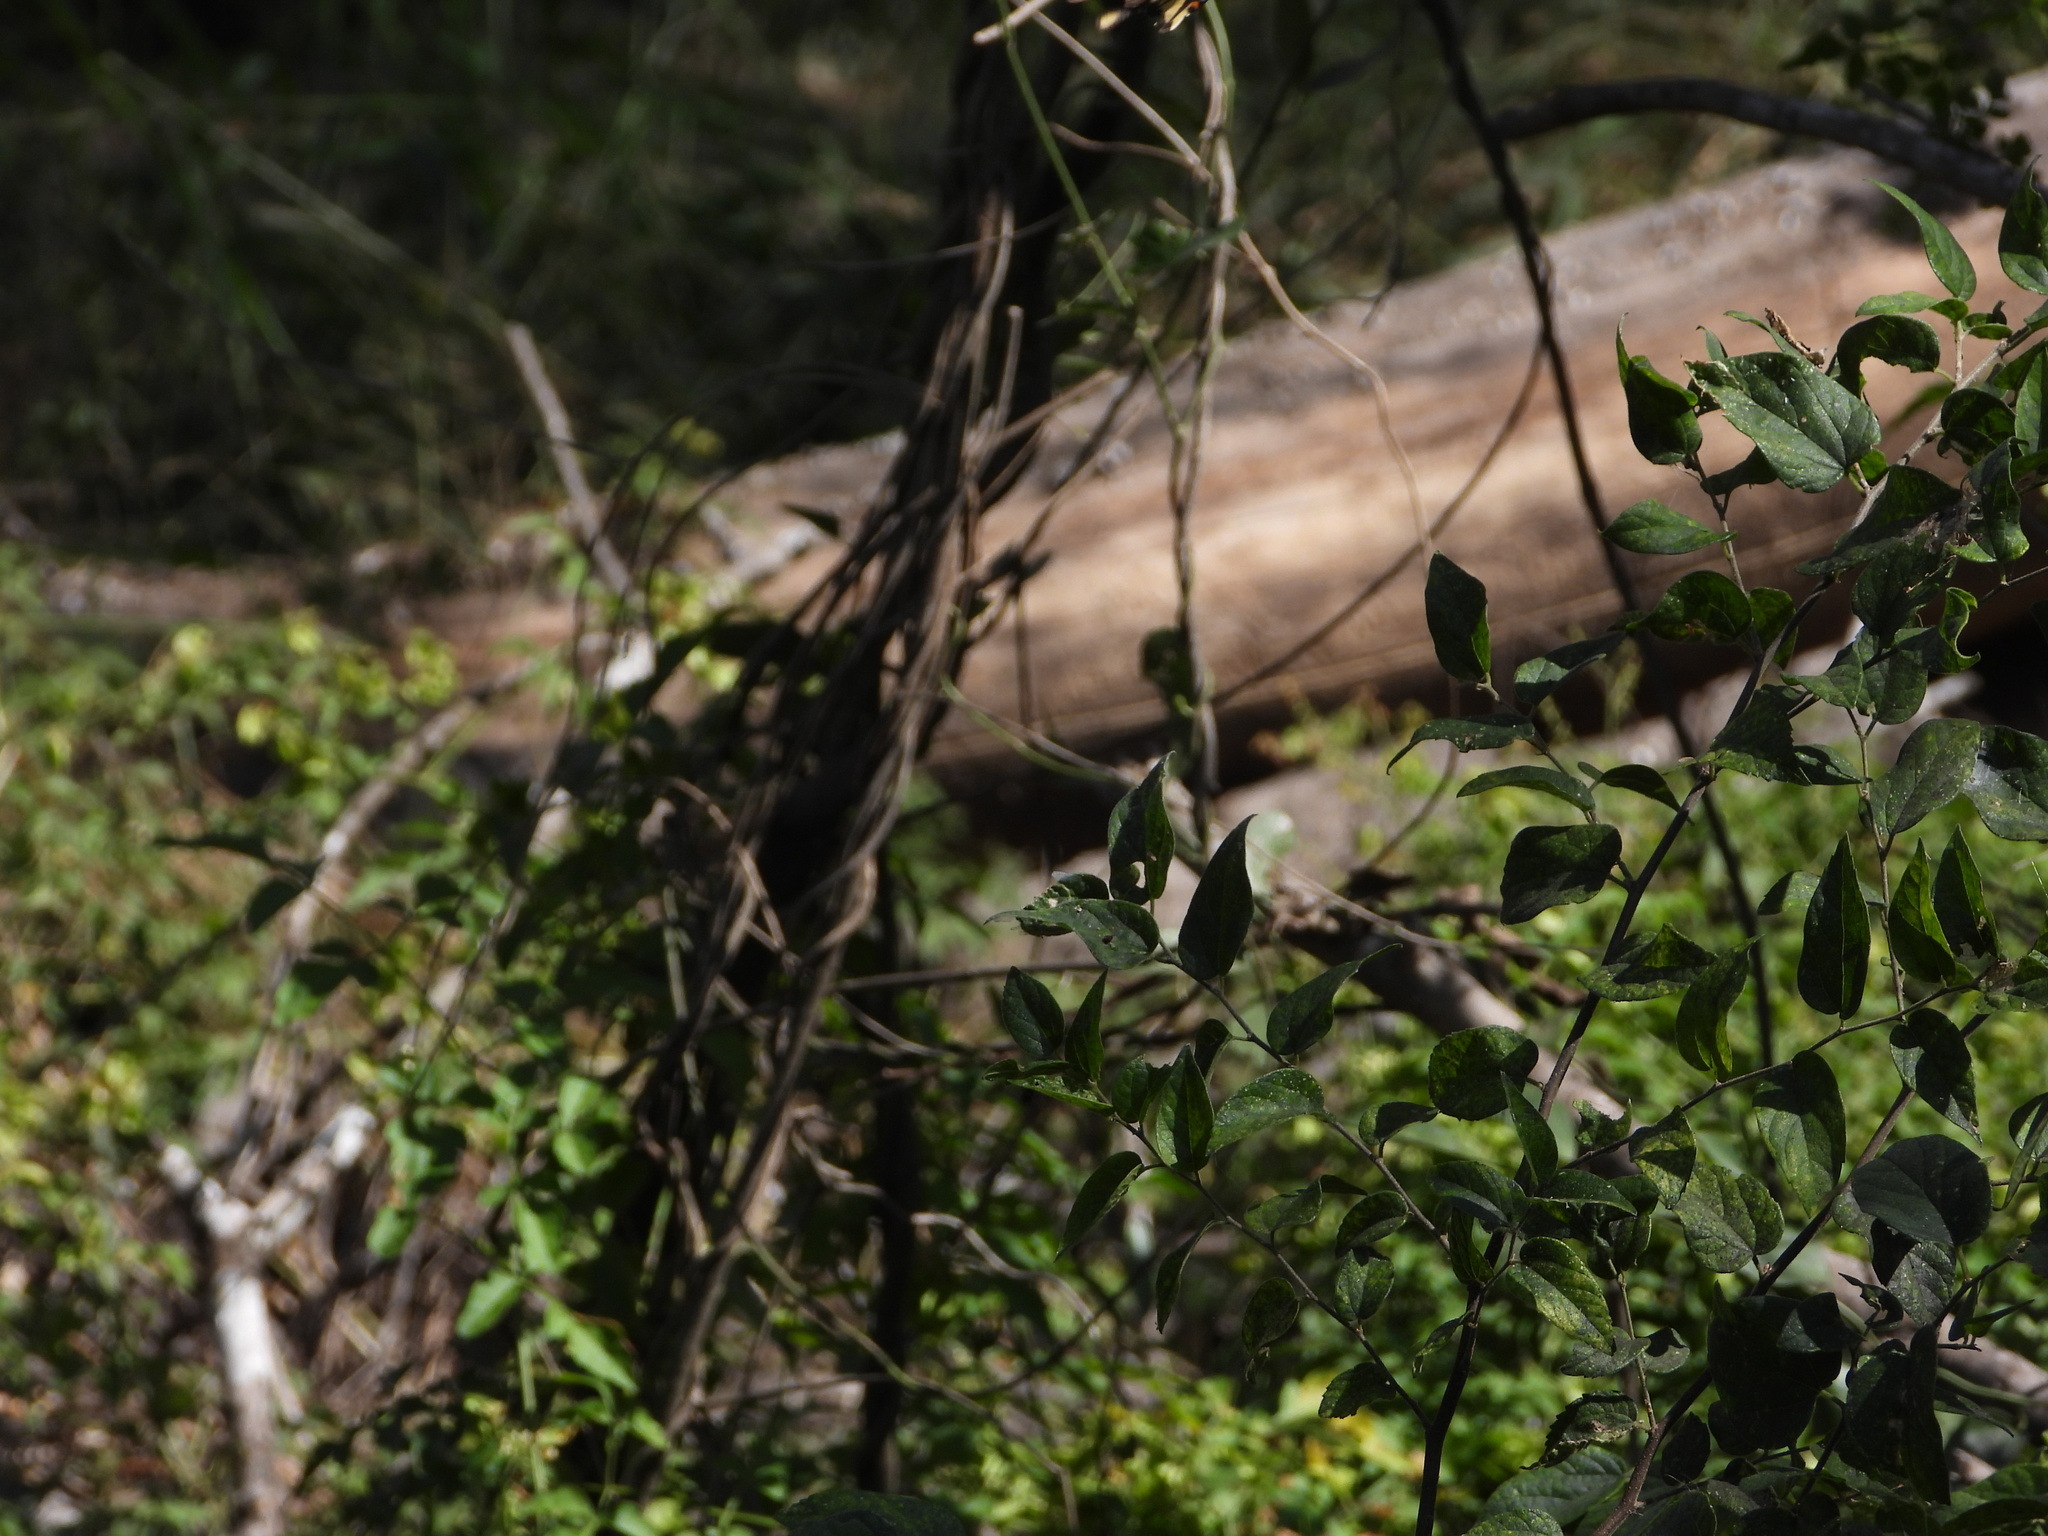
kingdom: Plantae
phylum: Tracheophyta
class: Magnoliopsida
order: Rosales
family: Cannabaceae
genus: Celtis
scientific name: Celtis laevigata
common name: Sugarberry
